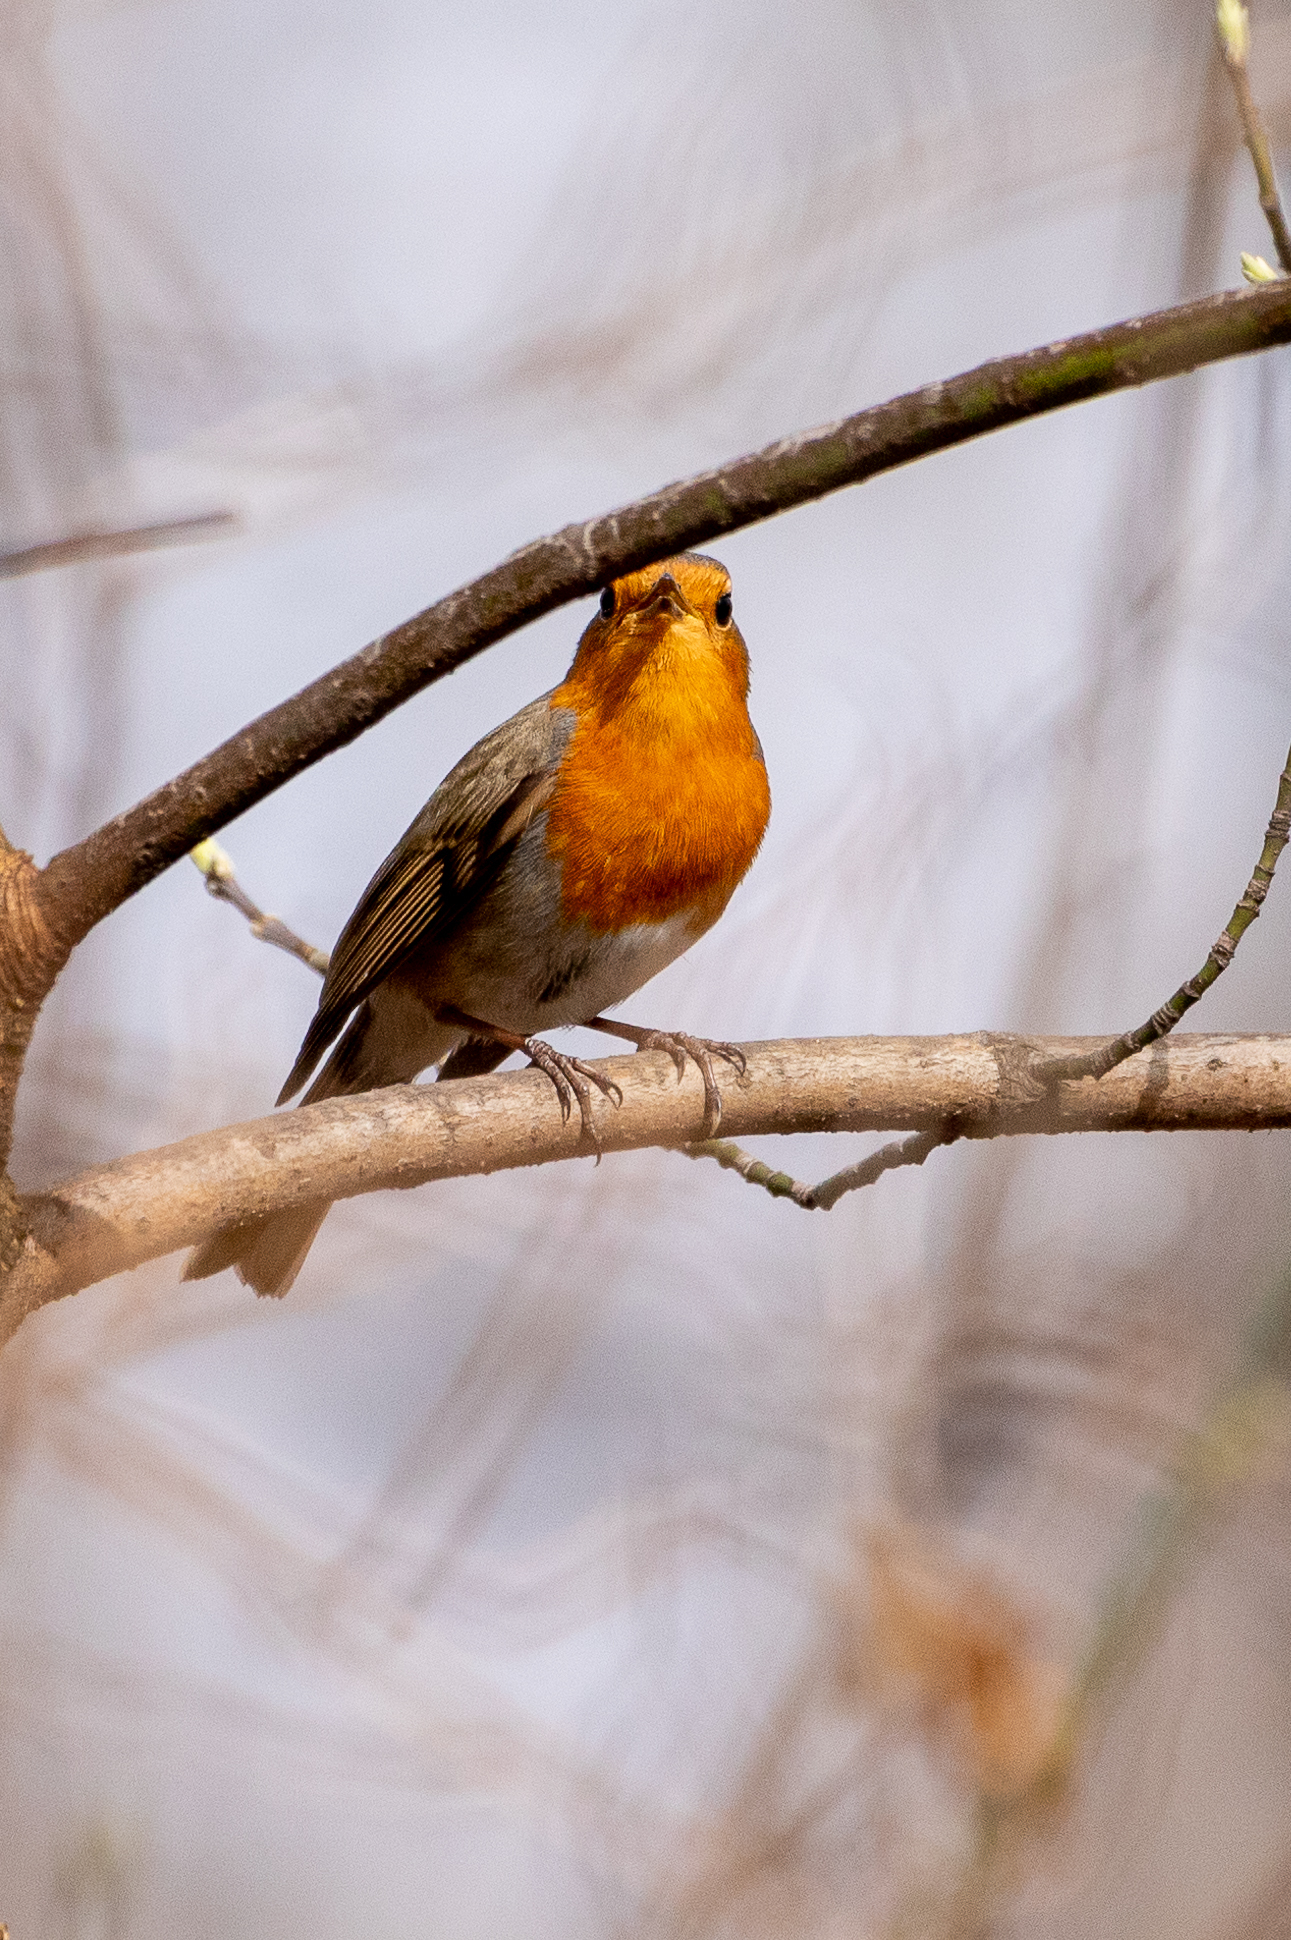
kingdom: Animalia
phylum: Chordata
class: Aves
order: Passeriformes
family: Muscicapidae
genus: Erithacus
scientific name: Erithacus rubecula
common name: European robin
